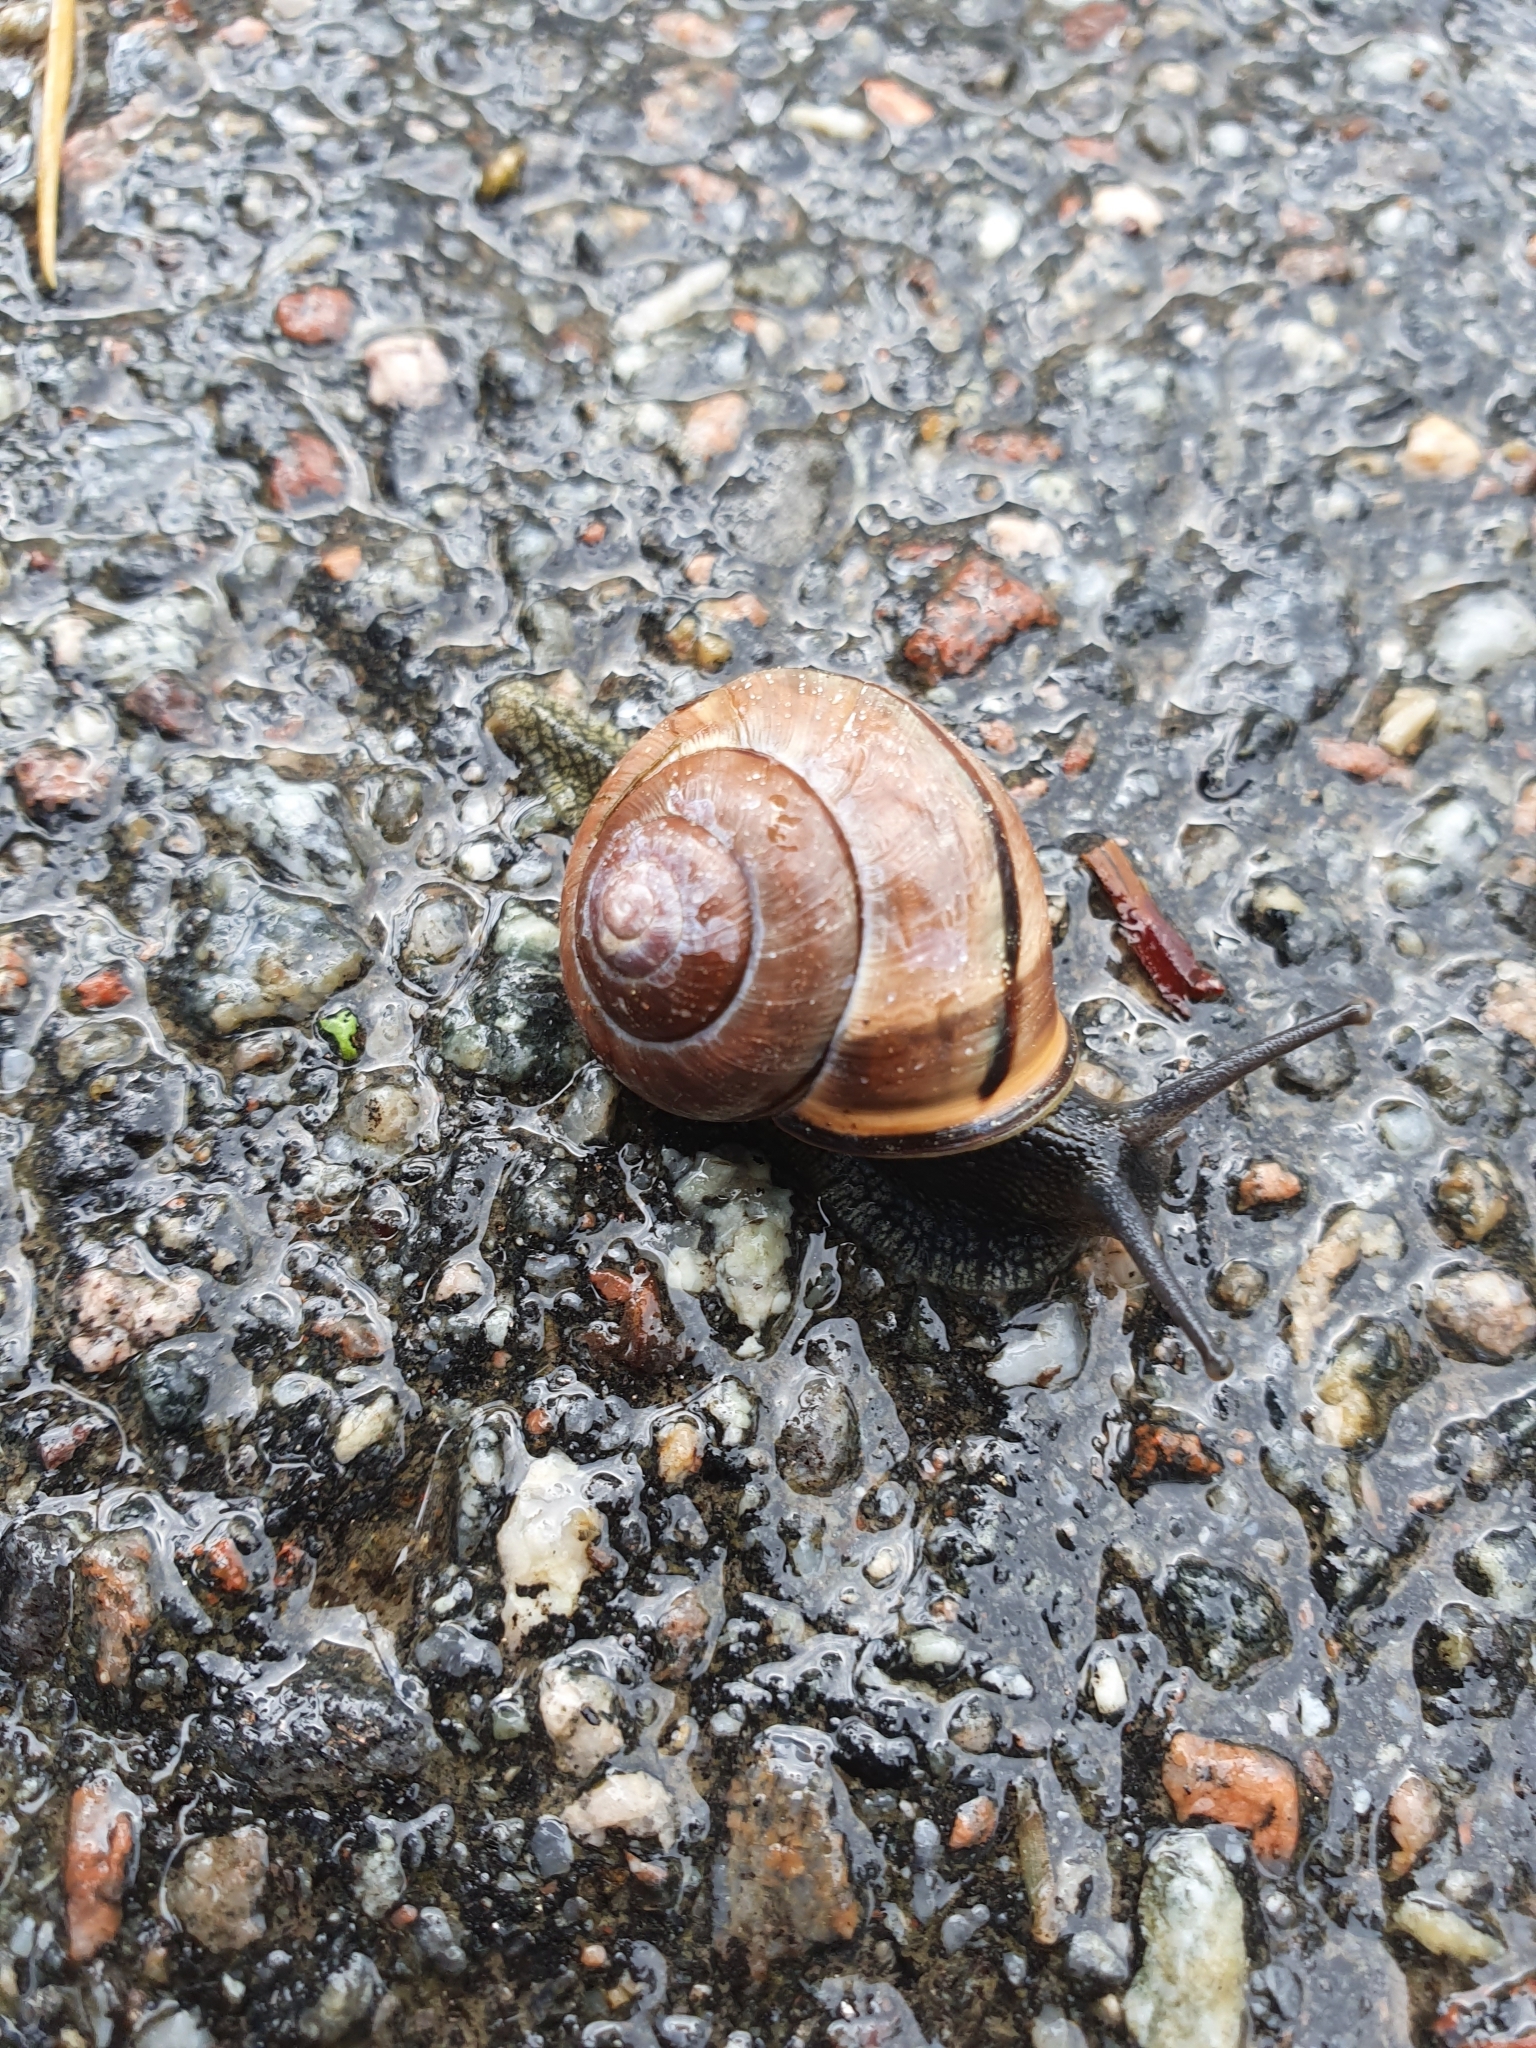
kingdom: Animalia
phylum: Mollusca
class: Gastropoda
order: Stylommatophora
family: Helicidae
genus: Cepaea
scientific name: Cepaea nemoralis
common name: Grovesnail
